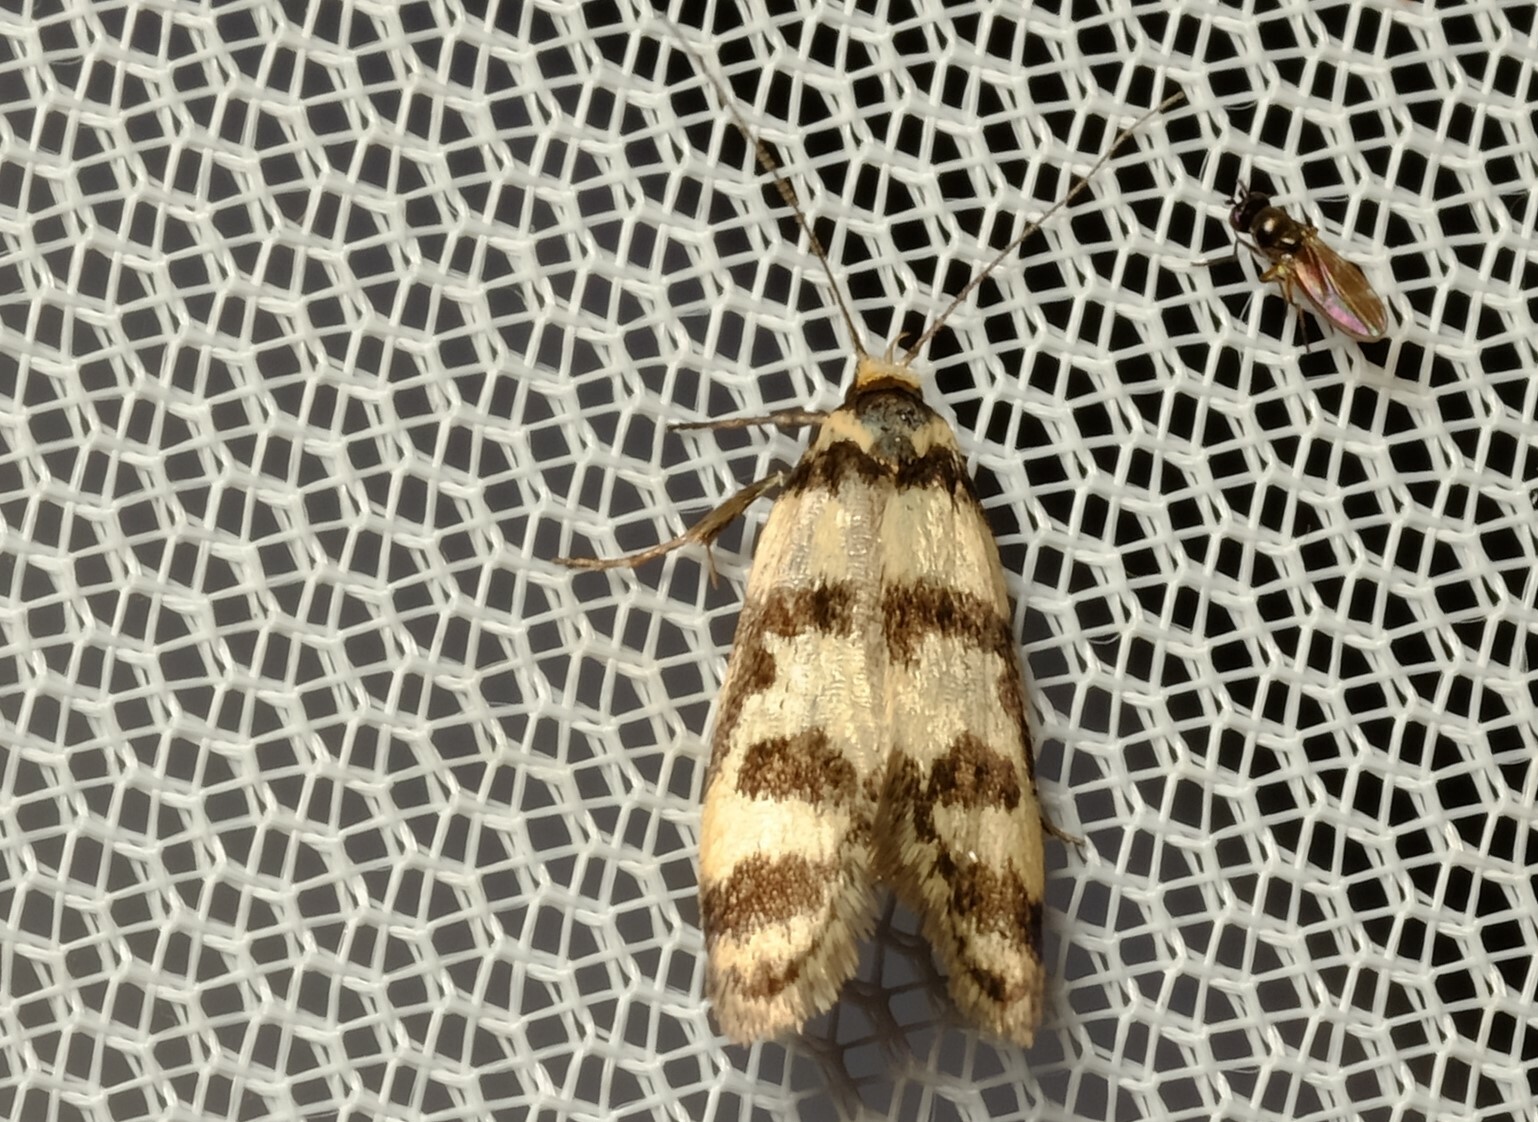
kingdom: Animalia
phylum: Arthropoda
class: Insecta
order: Lepidoptera
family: Oecophoridae
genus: Philobota
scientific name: Philobota impletella
